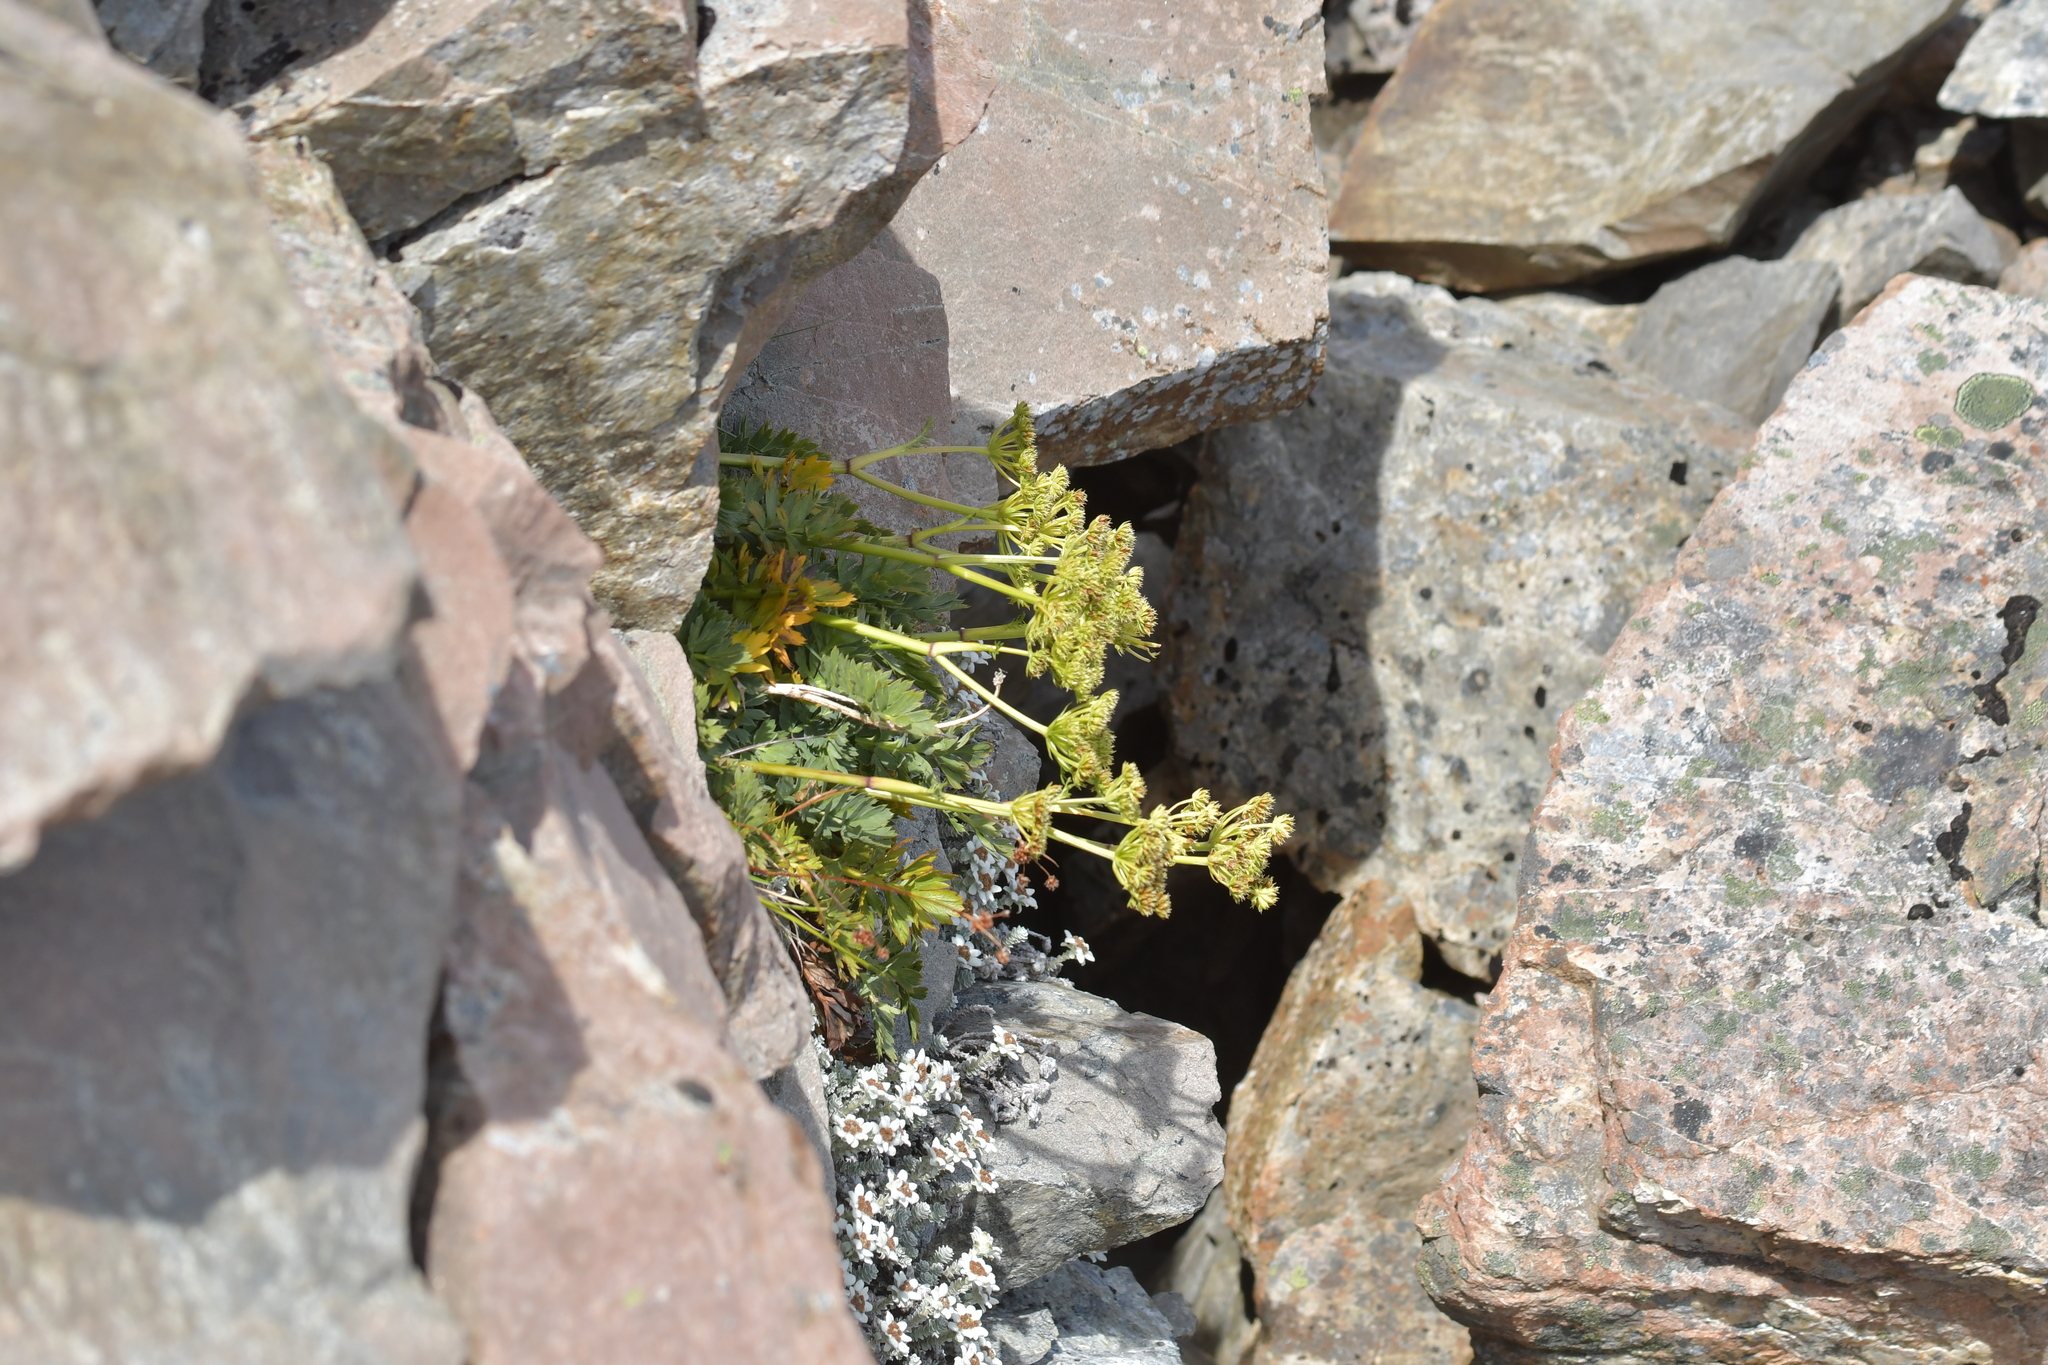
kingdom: Plantae
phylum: Tracheophyta
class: Magnoliopsida
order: Apiales
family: Apiaceae
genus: Anisotome
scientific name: Anisotome pilifera
